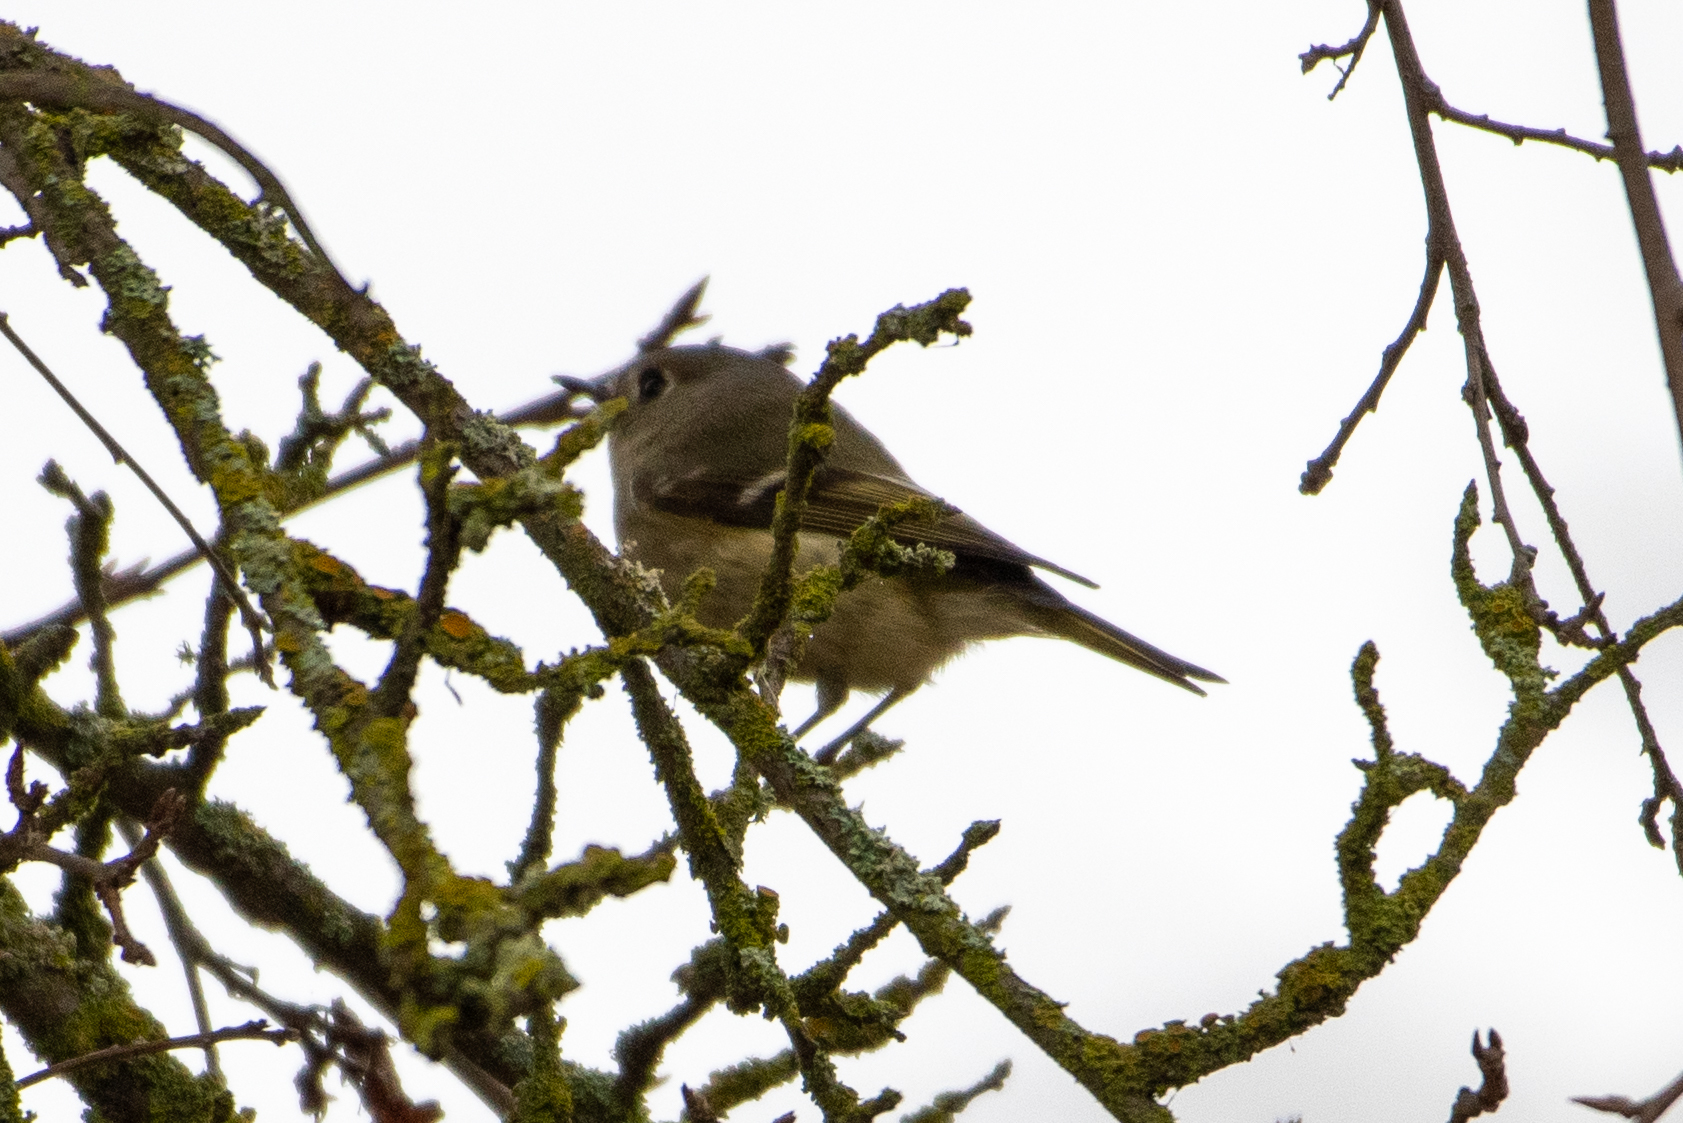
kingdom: Animalia
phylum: Chordata
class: Aves
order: Passeriformes
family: Regulidae
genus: Regulus
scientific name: Regulus calendula
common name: Ruby-crowned kinglet
